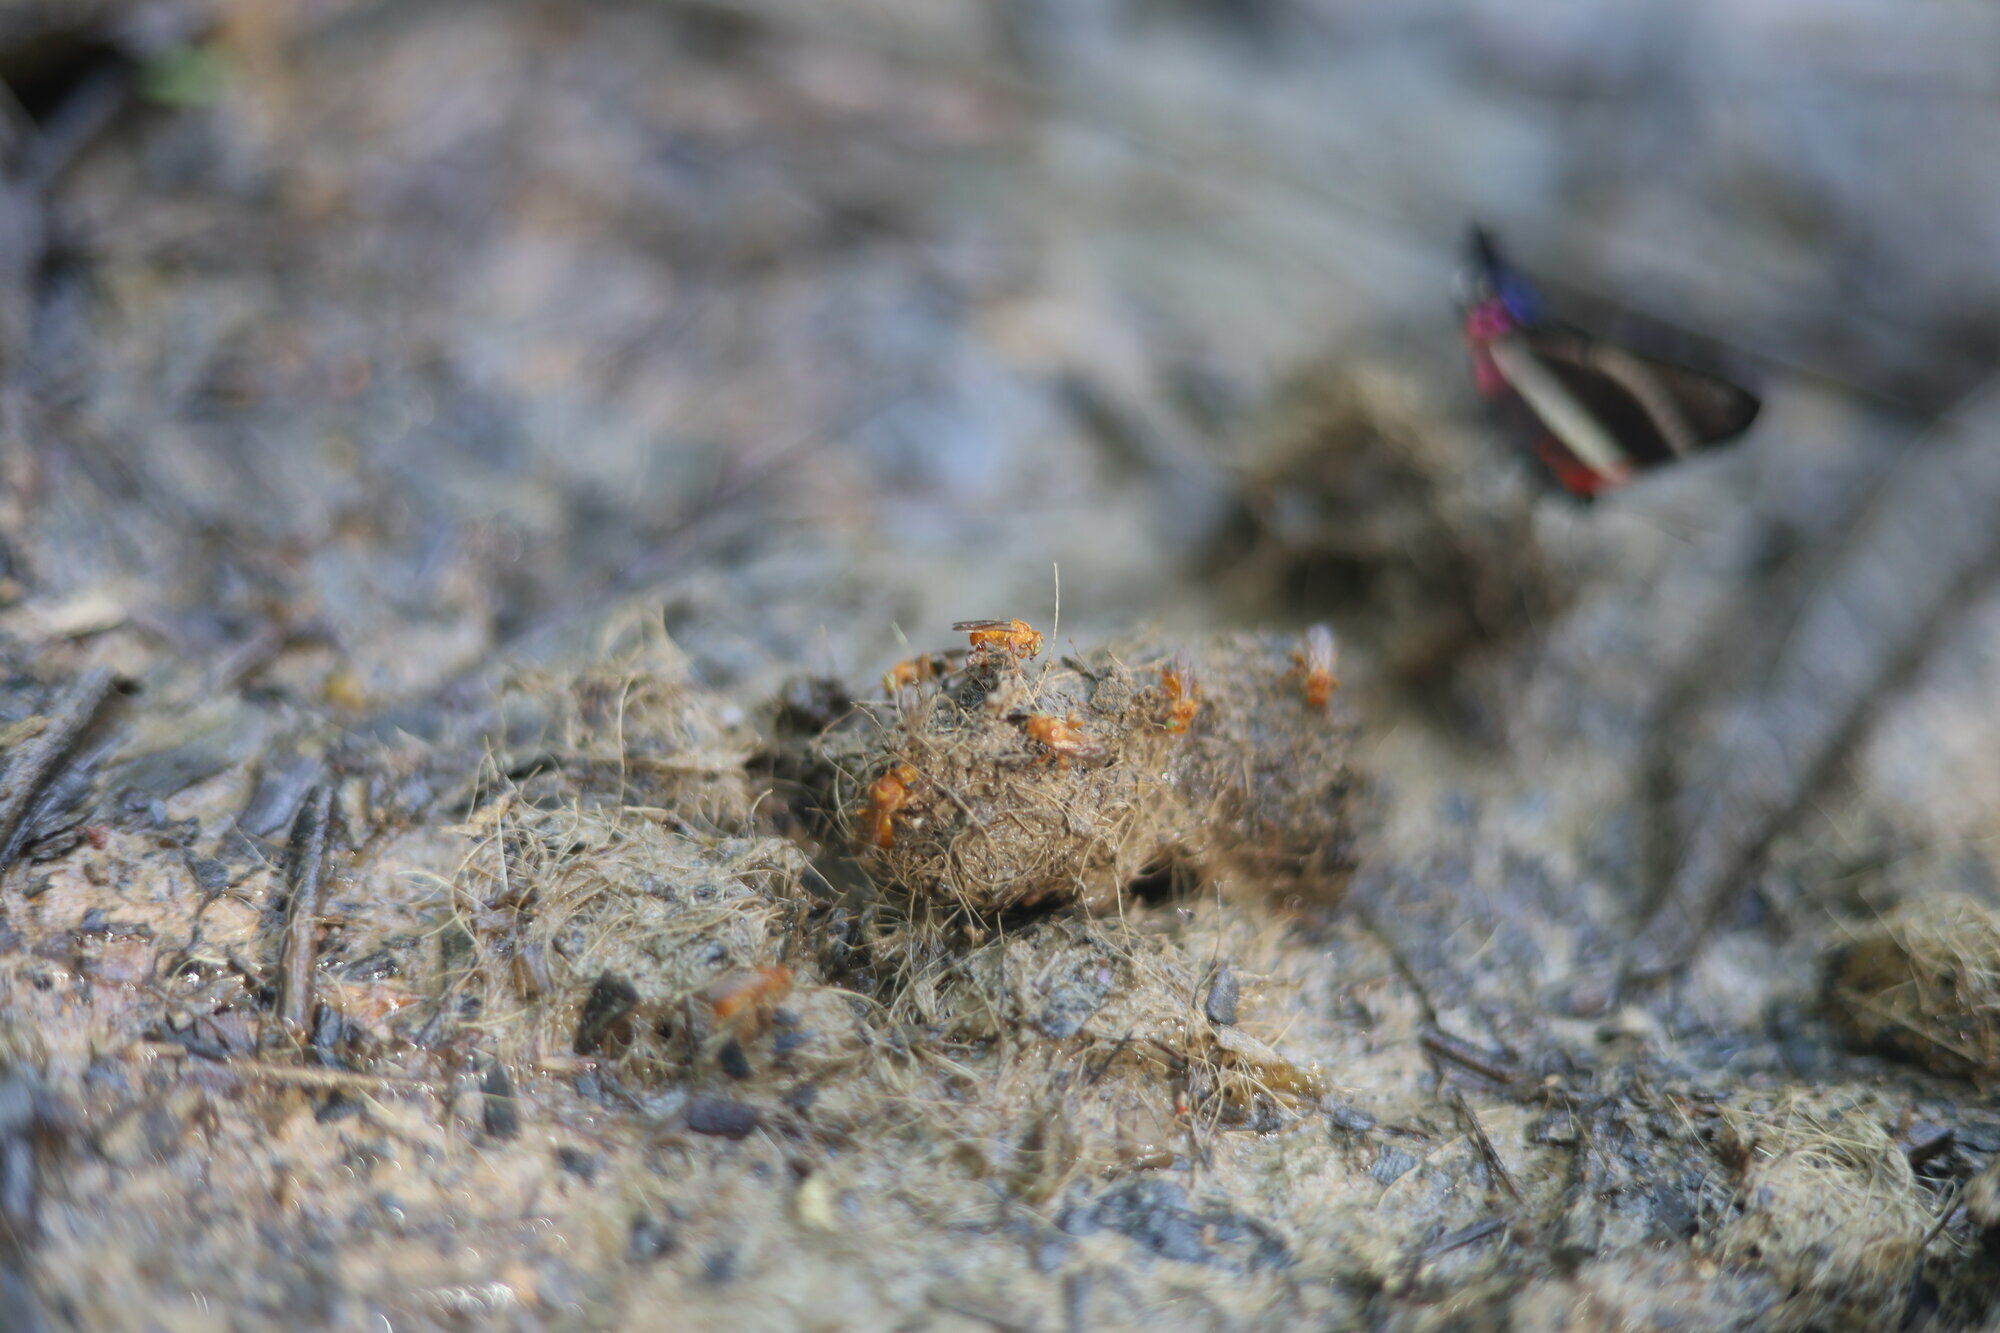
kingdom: Animalia
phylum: Arthropoda
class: Insecta
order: Hymenoptera
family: Apidae
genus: Trigona
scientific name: Trigona pallens
